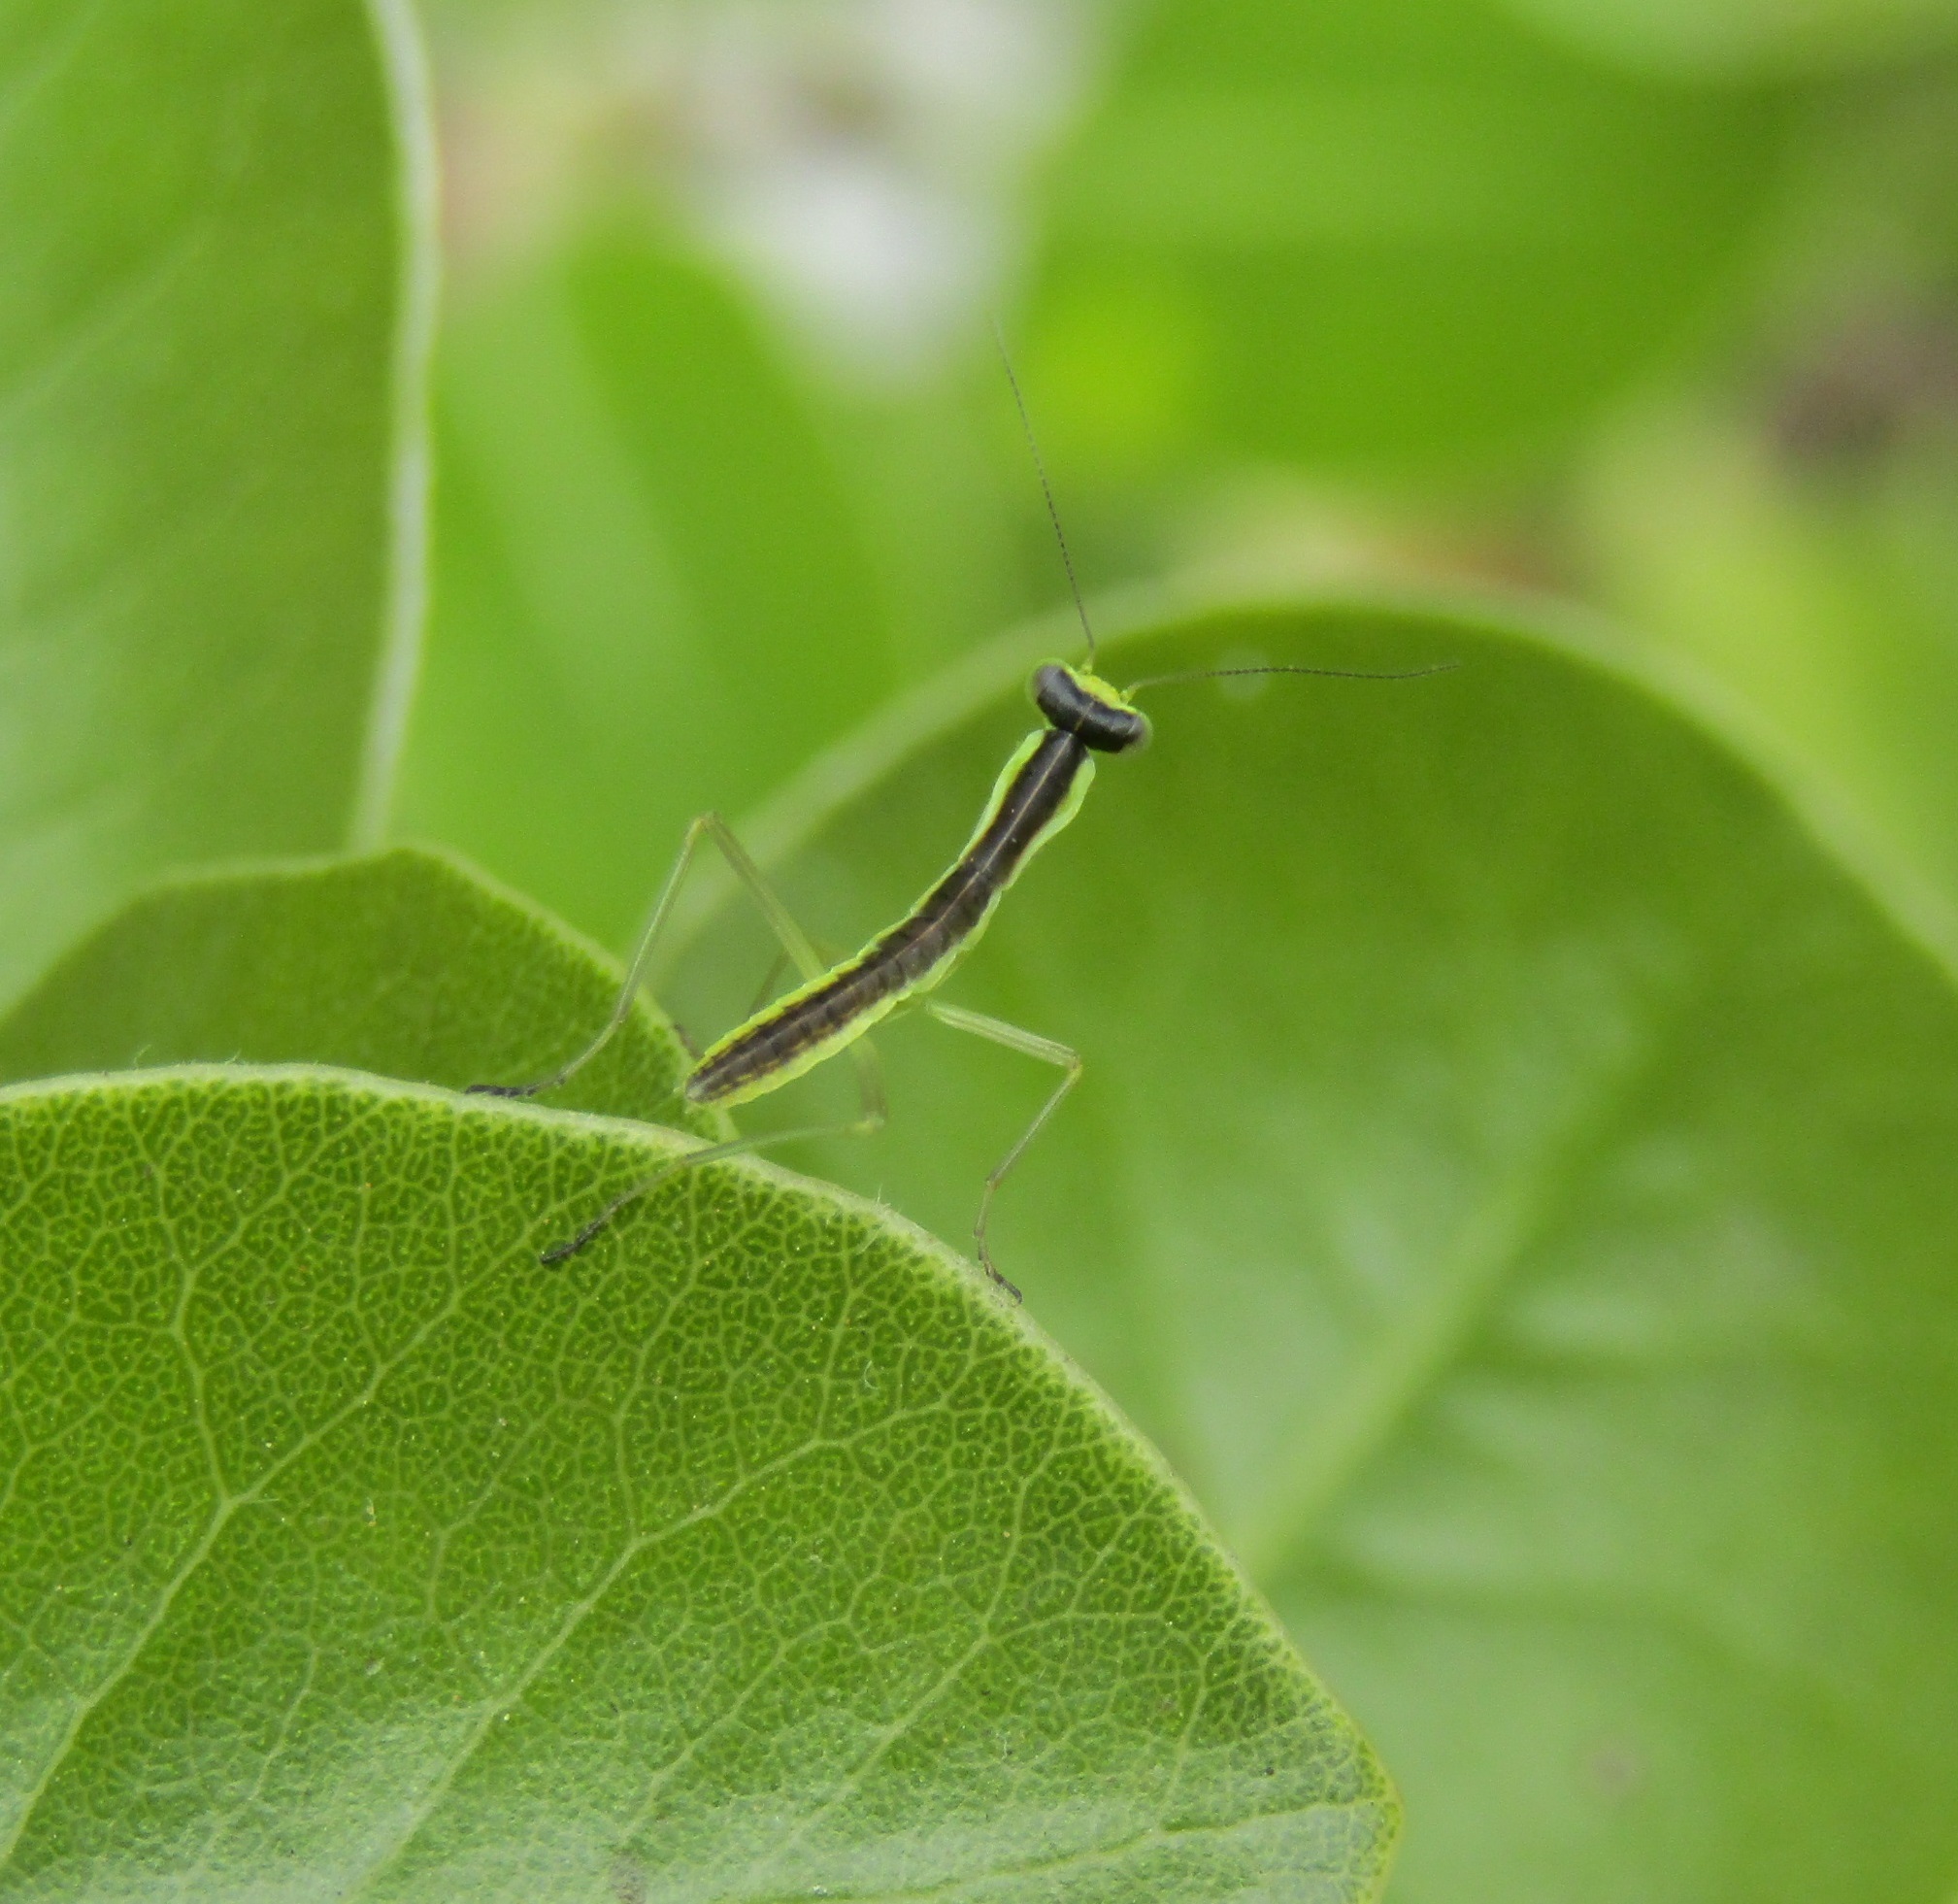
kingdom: Animalia
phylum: Arthropoda
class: Insecta
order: Mantodea
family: Mantidae
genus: Orthodera
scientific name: Orthodera novaezealandiae
